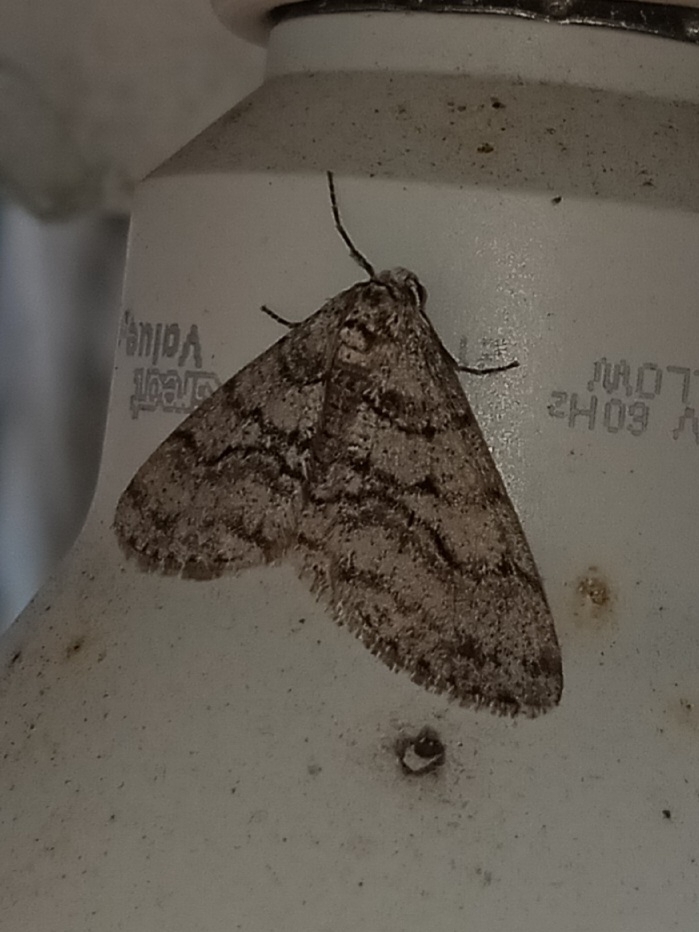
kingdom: Animalia
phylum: Arthropoda
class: Insecta
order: Lepidoptera
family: Geometridae
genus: Phigalia
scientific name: Phigalia titea
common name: Spiny looper
